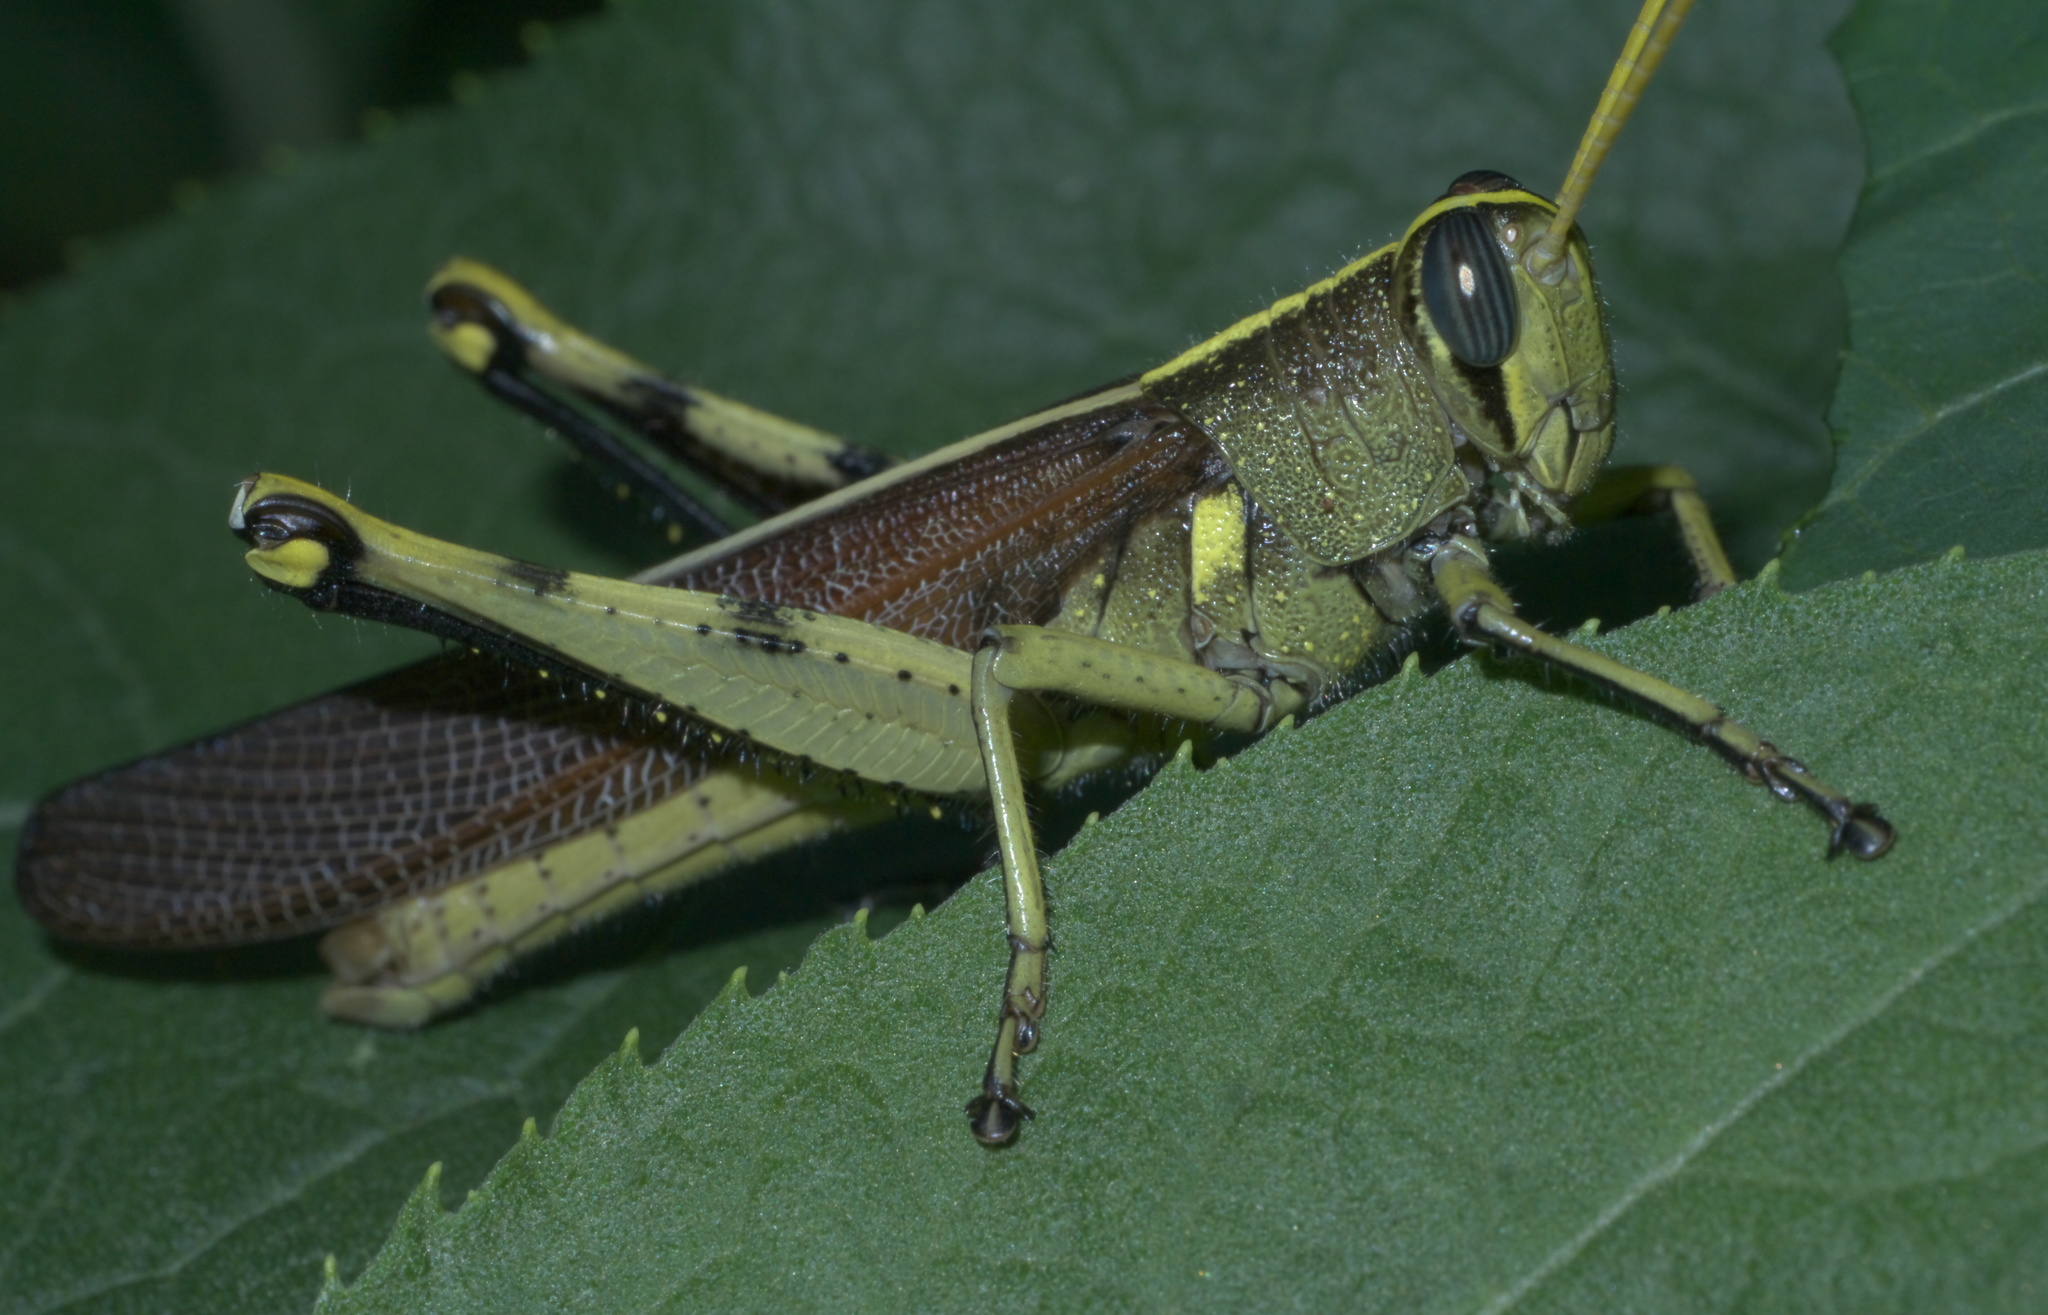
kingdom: Animalia
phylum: Arthropoda
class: Insecta
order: Orthoptera
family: Acrididae
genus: Schistocerca
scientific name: Schistocerca obscura
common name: Obscure bird grasshopper
